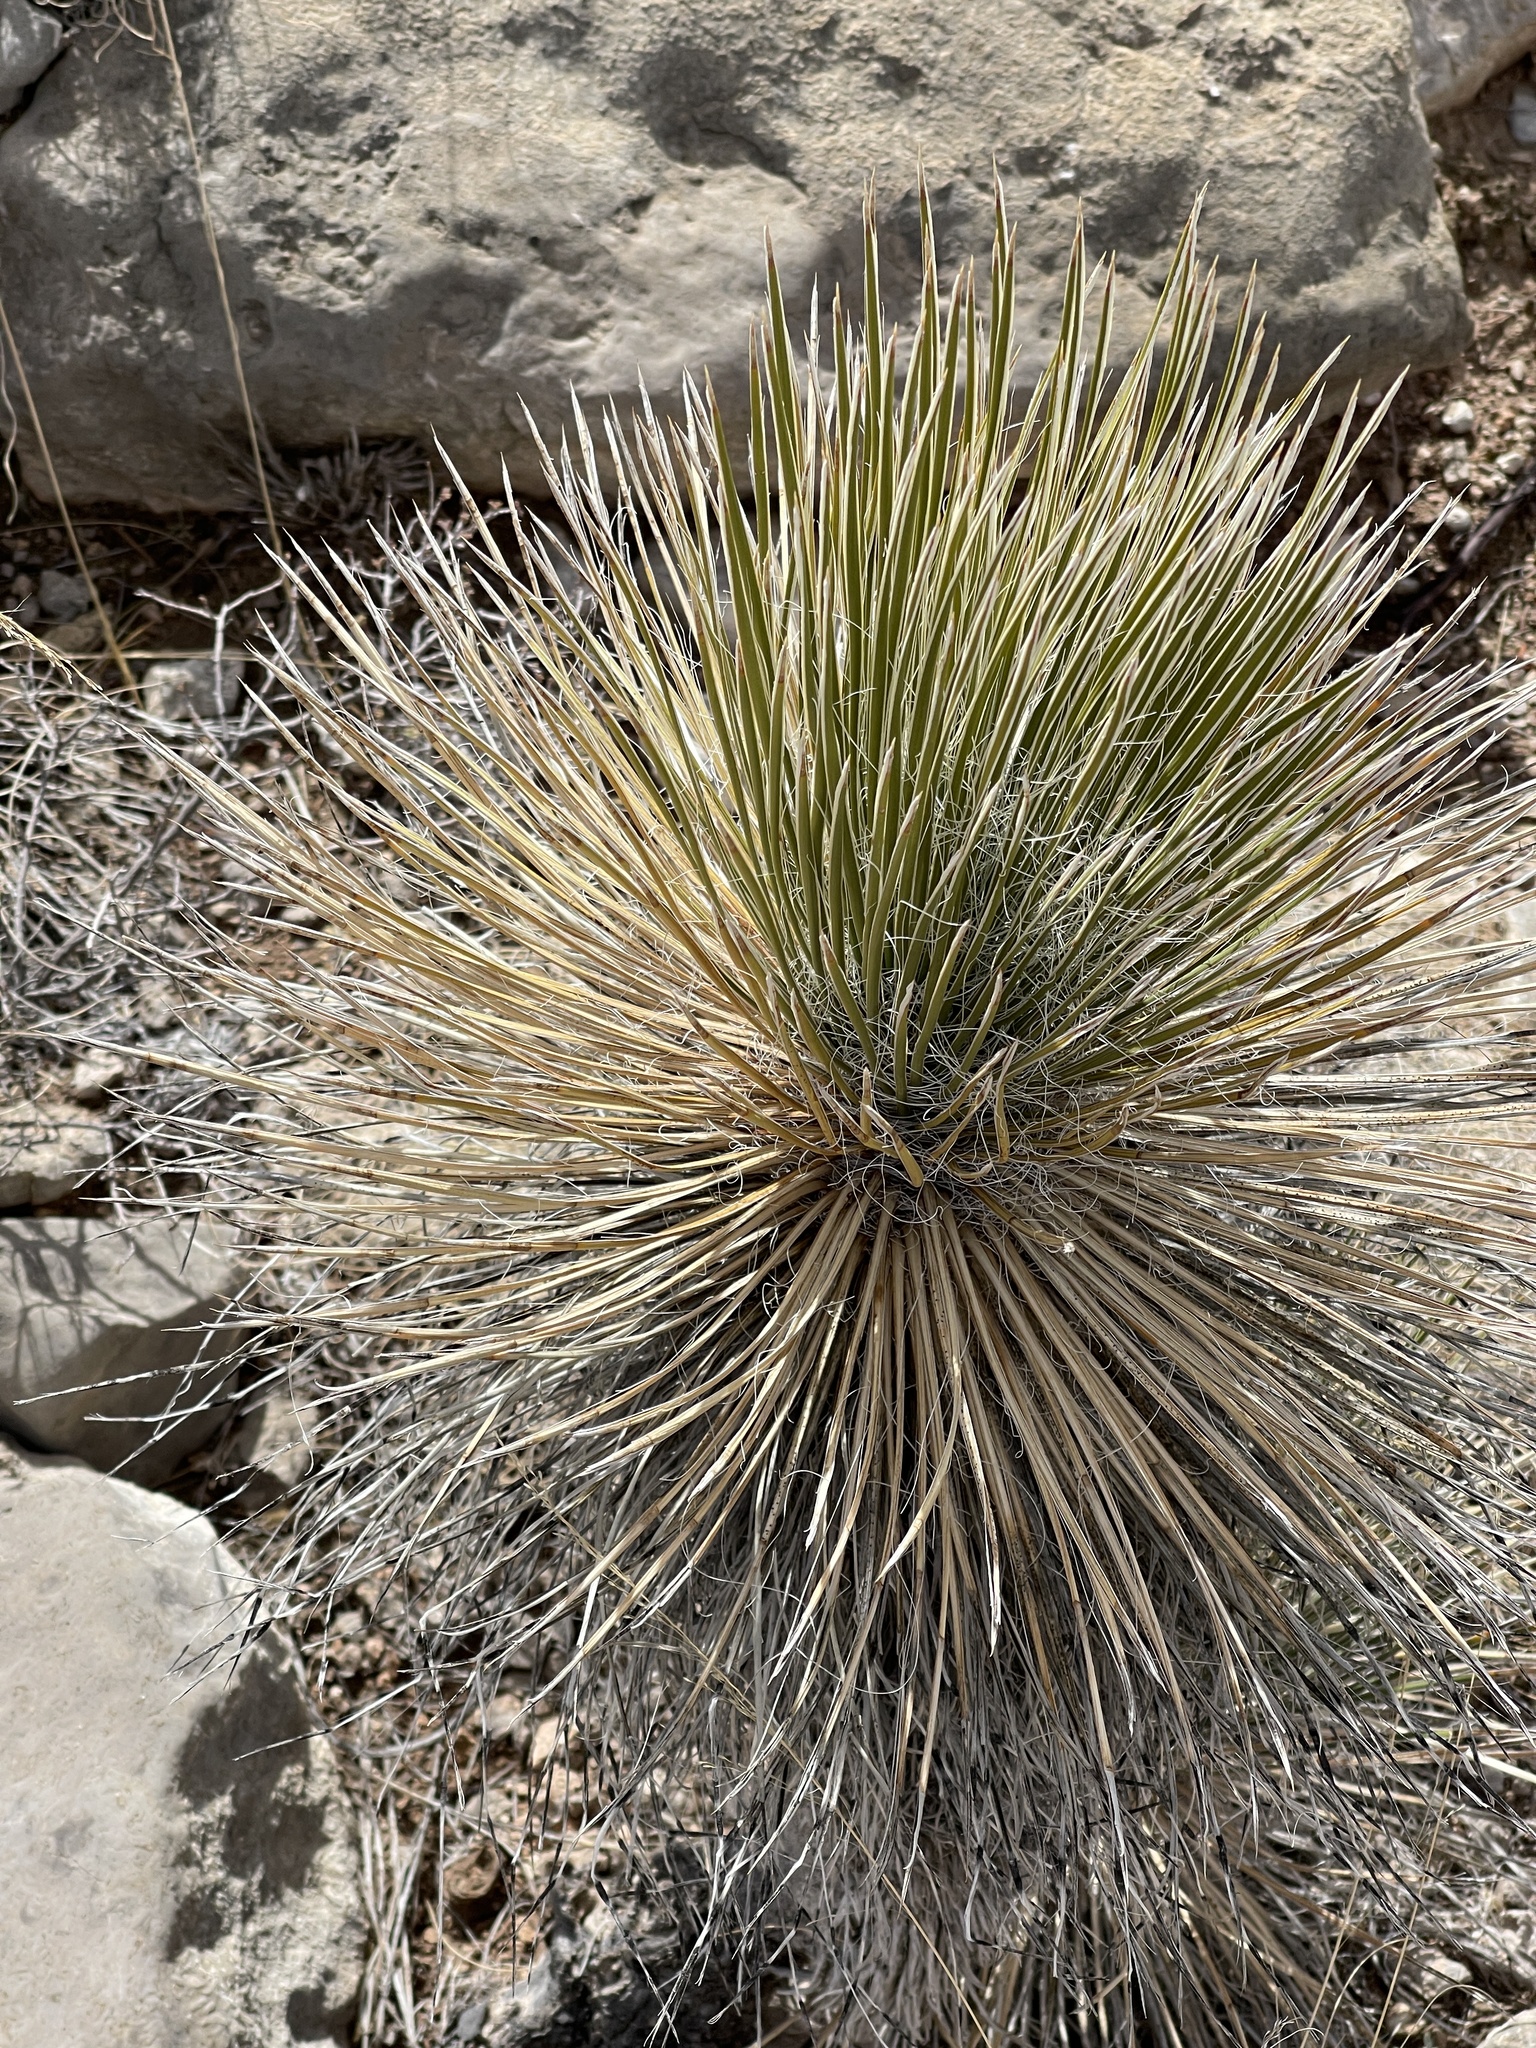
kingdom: Plantae
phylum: Tracheophyta
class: Liliopsida
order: Asparagales
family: Asparagaceae
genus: Yucca
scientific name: Yucca elata
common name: Palmella
